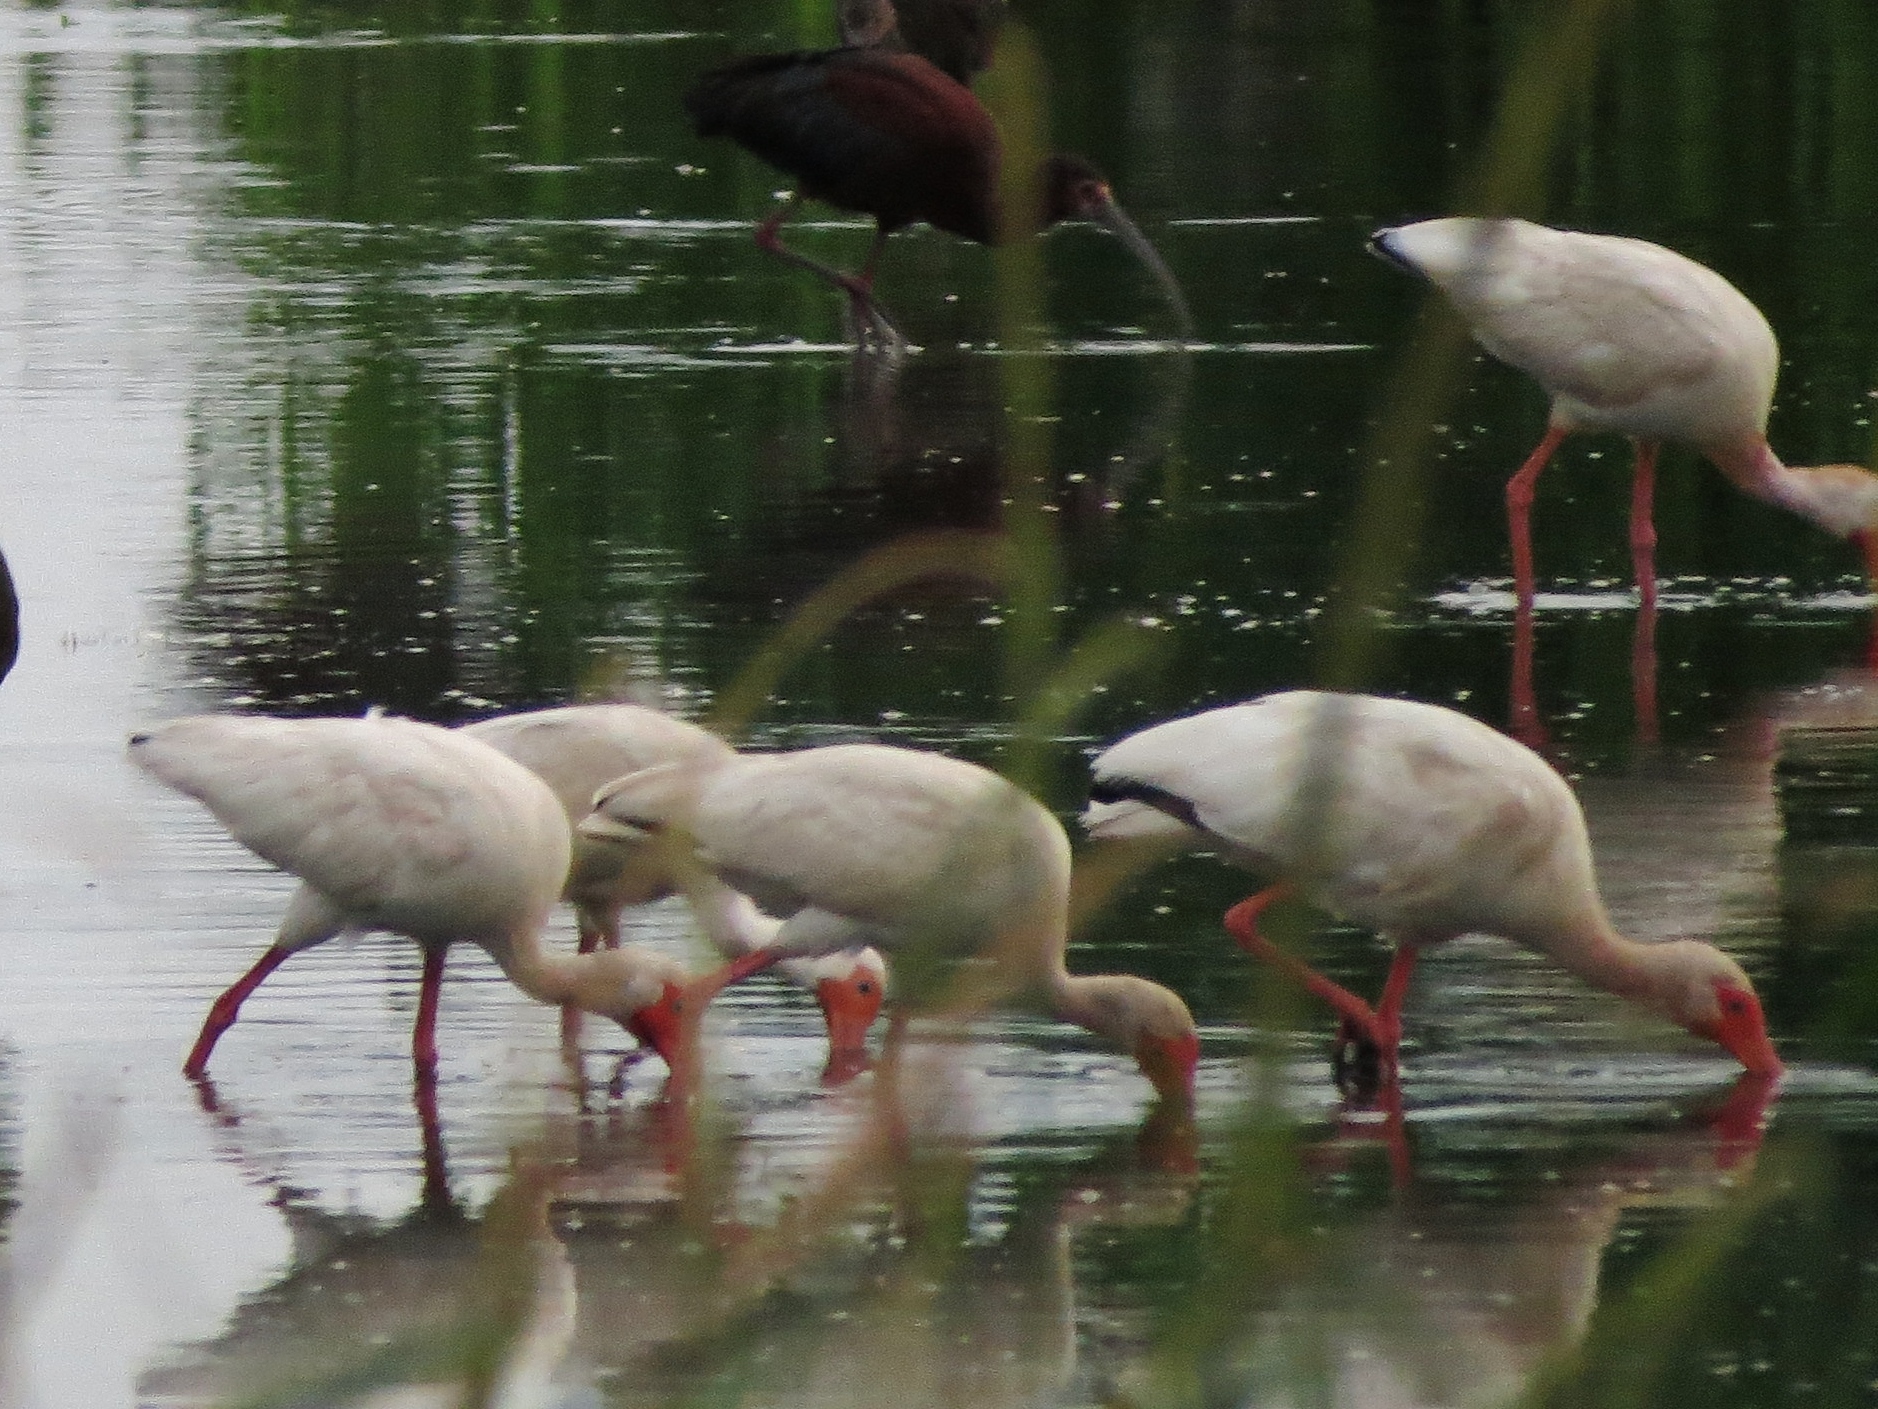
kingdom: Animalia
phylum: Chordata
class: Aves
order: Pelecaniformes
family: Threskiornithidae
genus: Eudocimus
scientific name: Eudocimus albus
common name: White ibis
